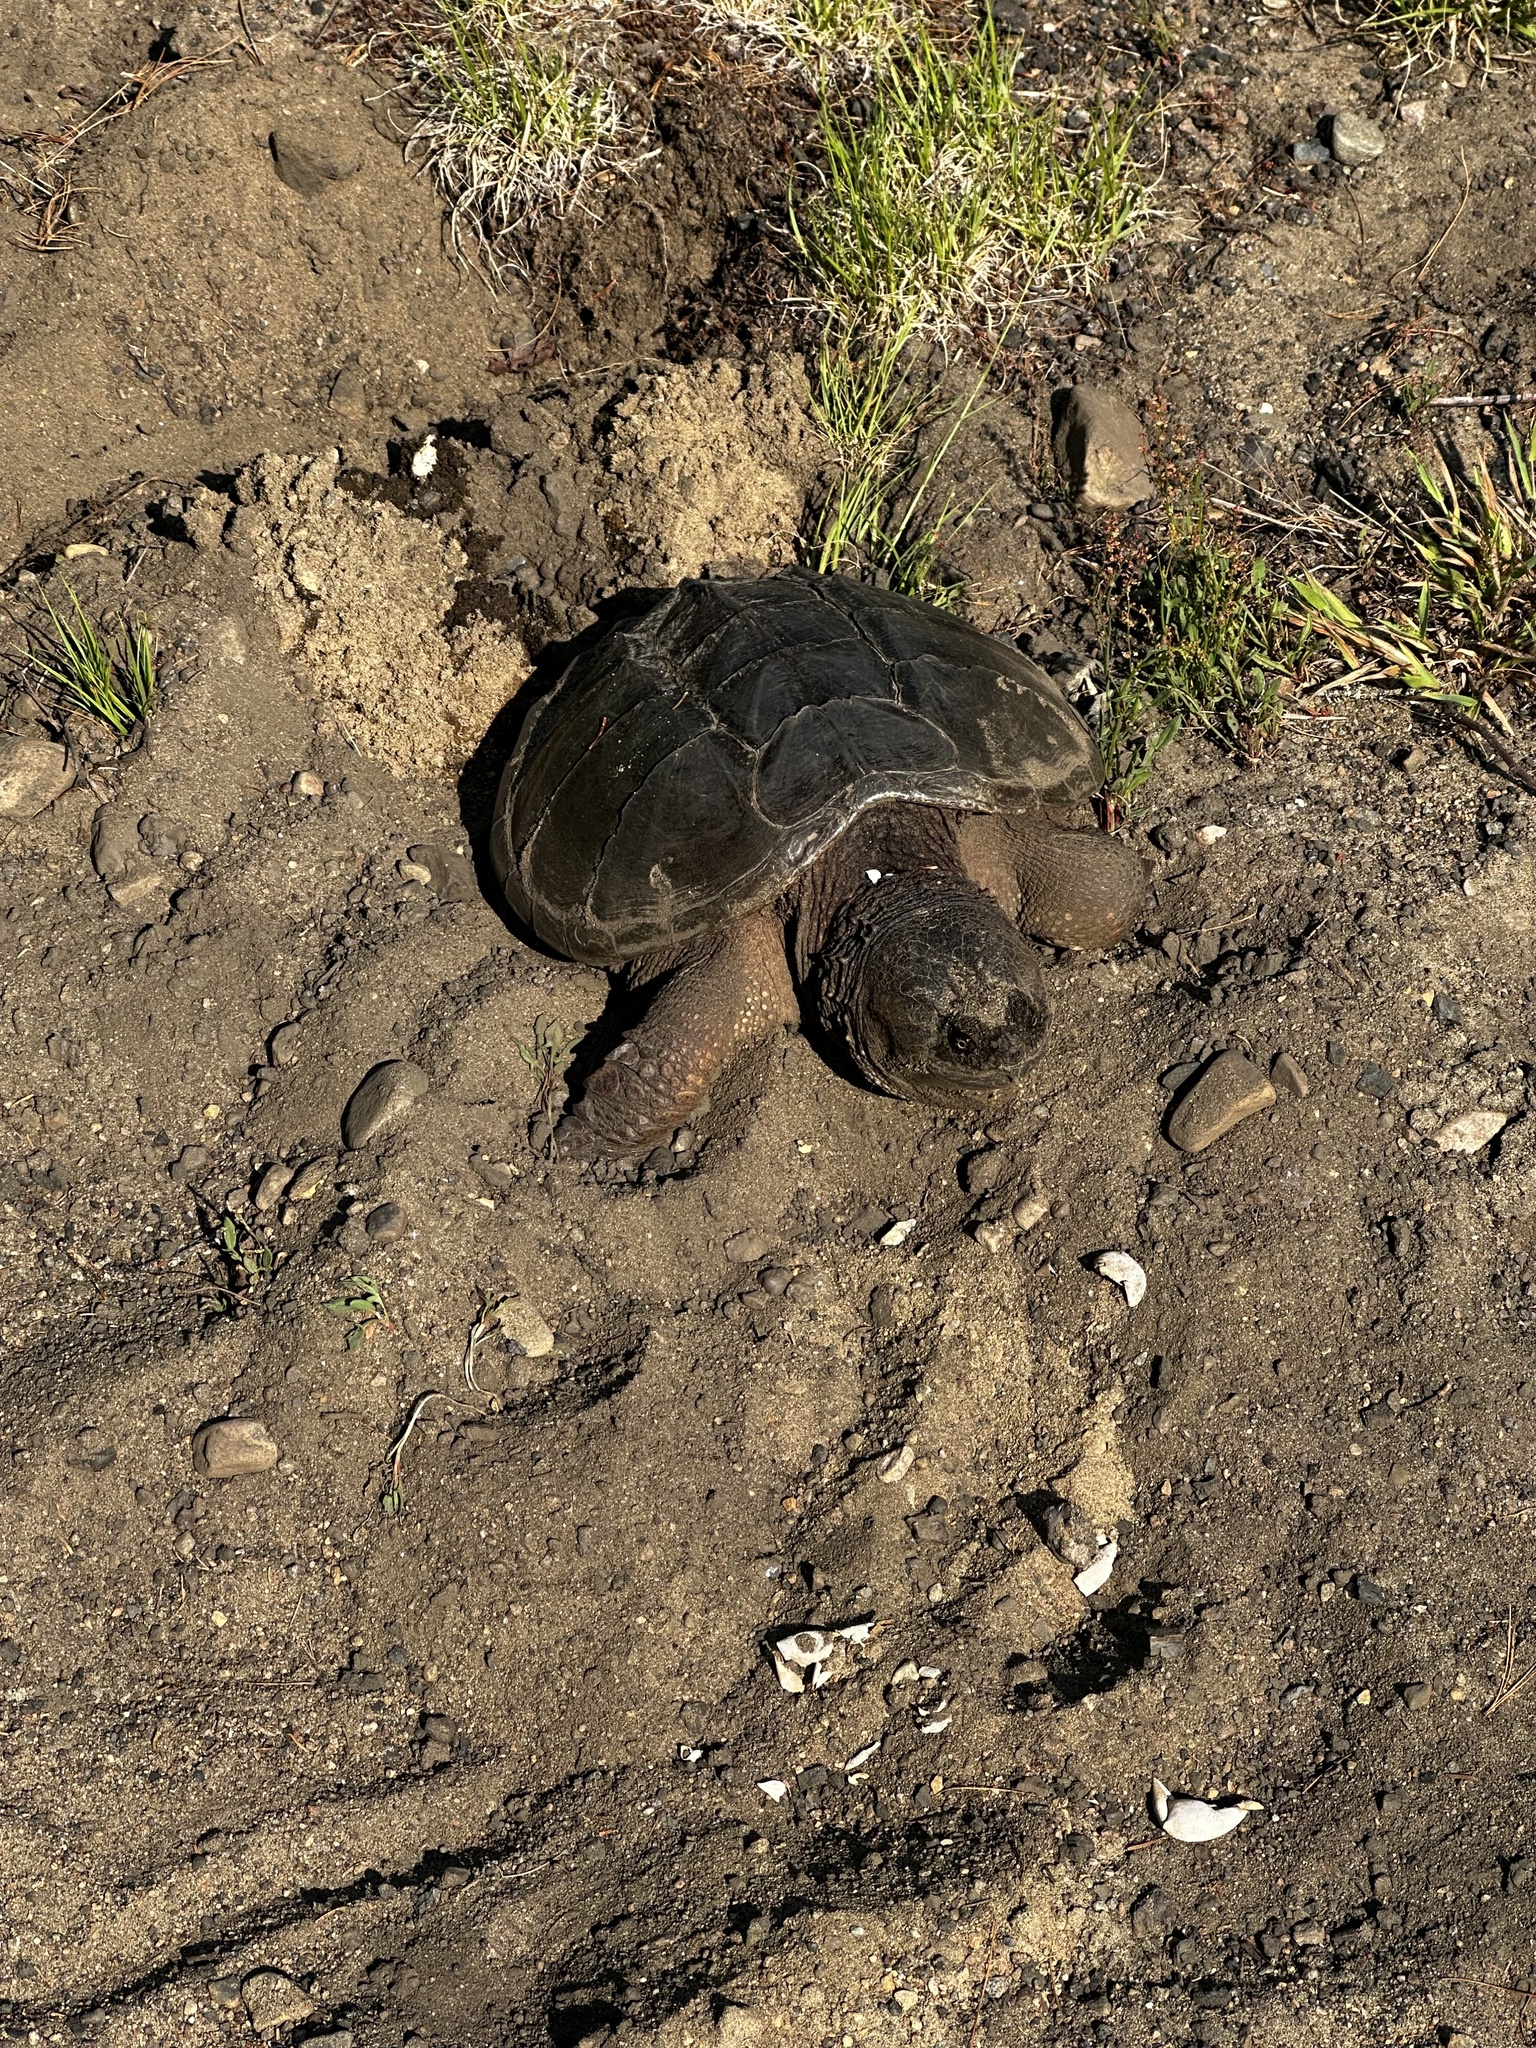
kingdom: Animalia
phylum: Chordata
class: Testudines
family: Chelydridae
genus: Chelydra
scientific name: Chelydra serpentina
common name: Common snapping turtle
